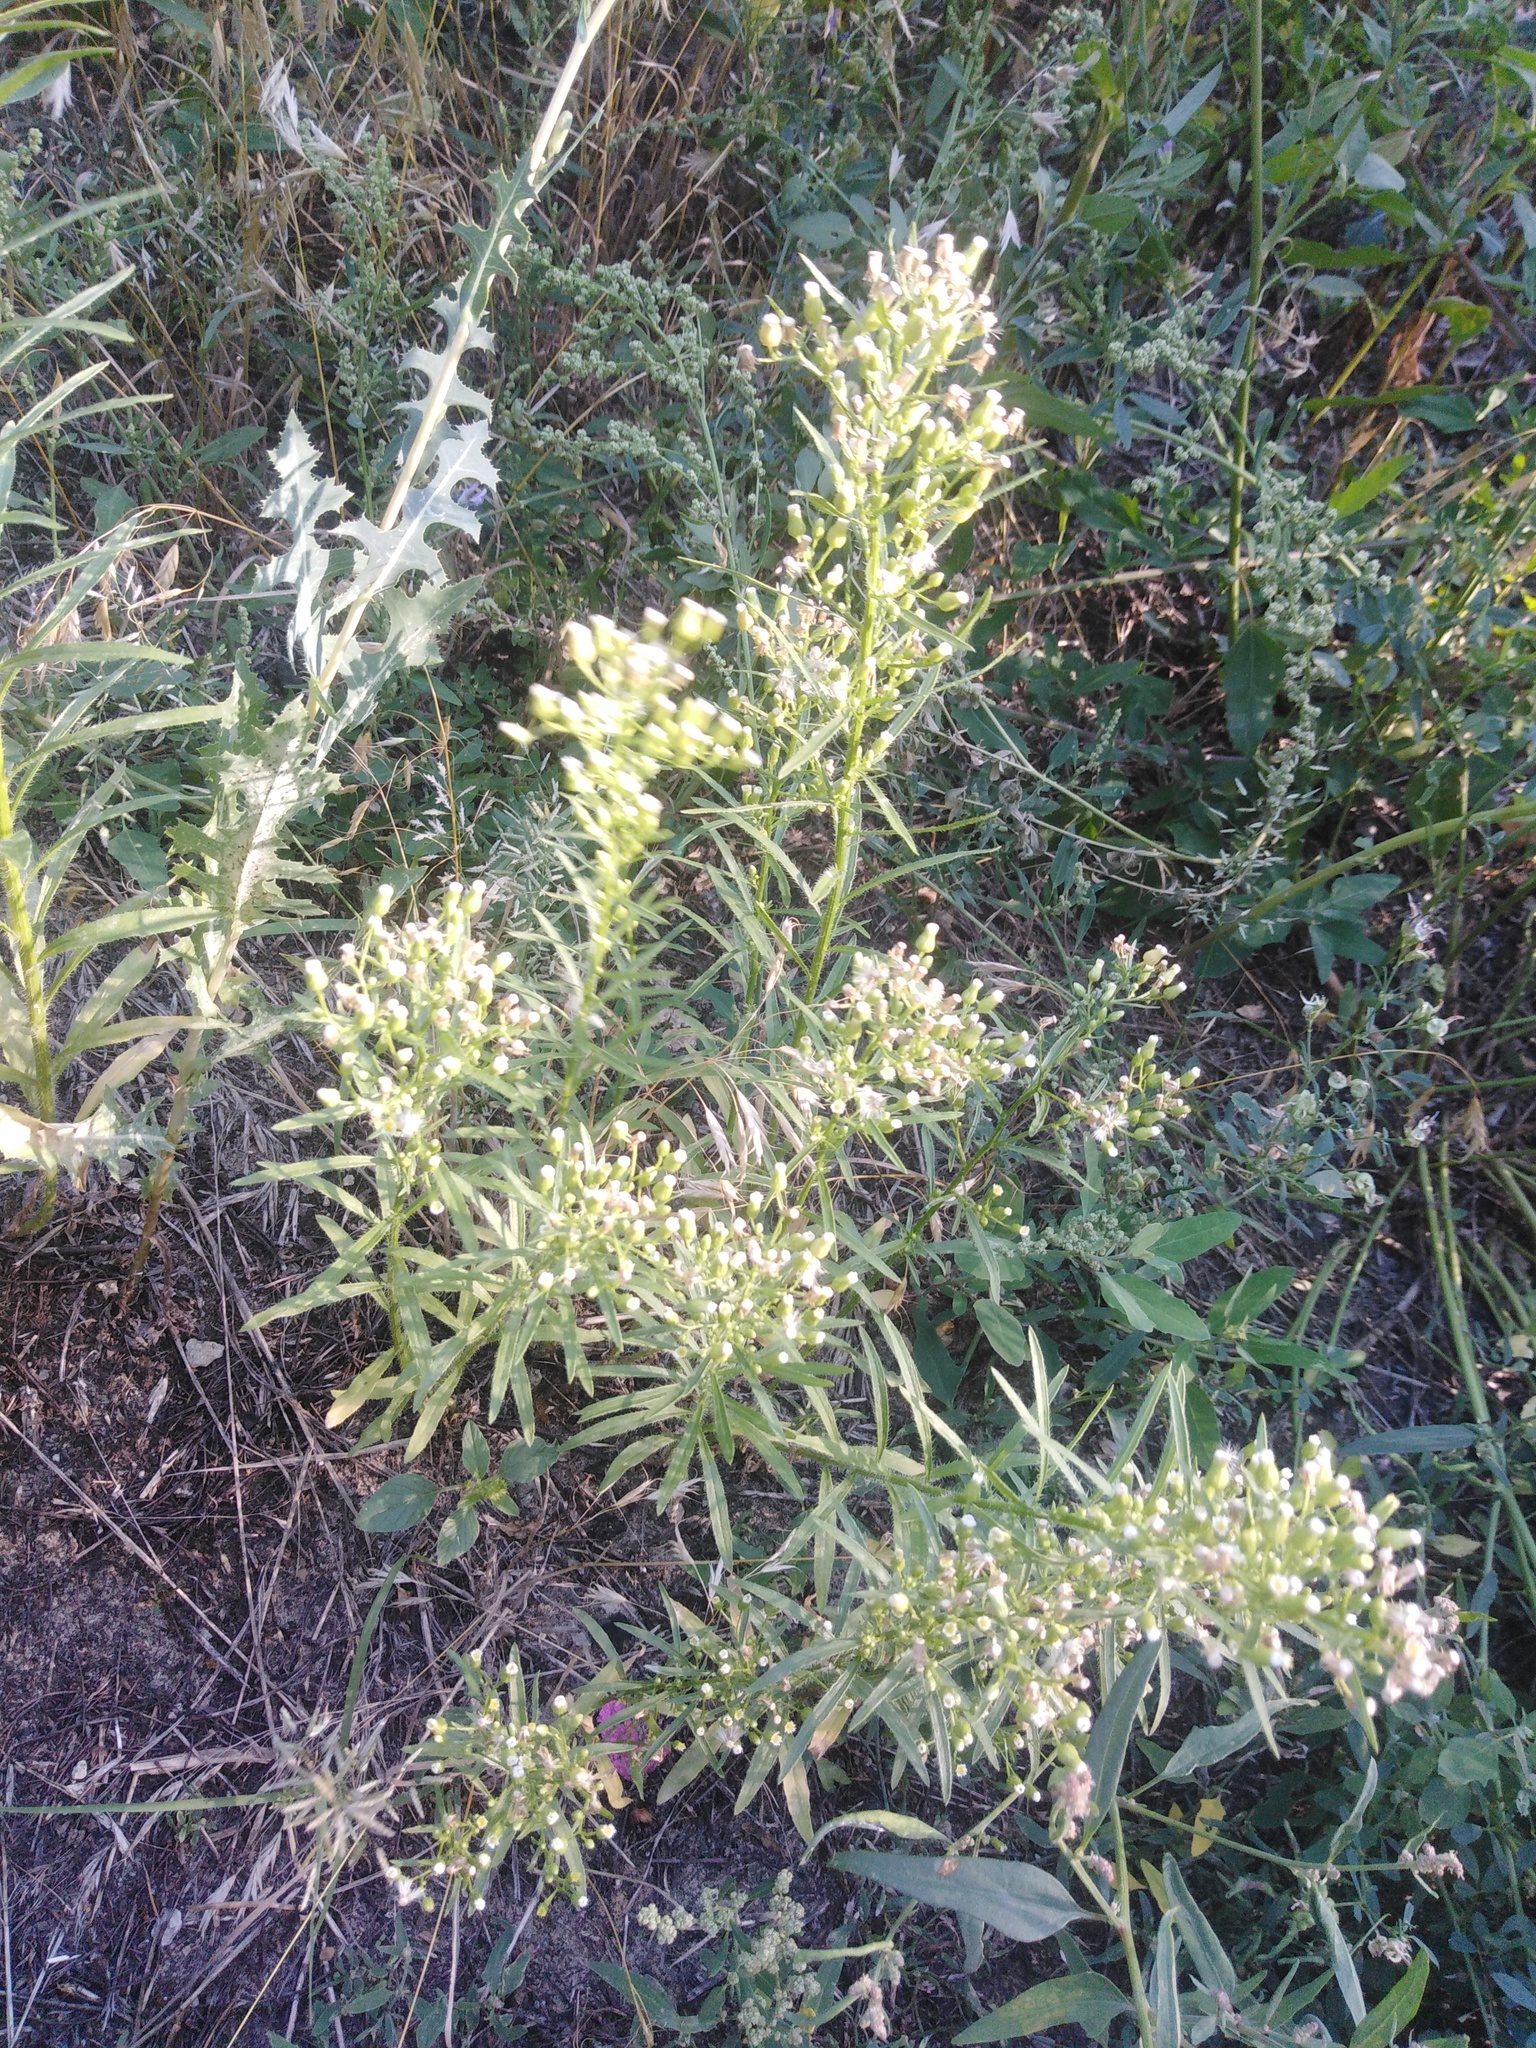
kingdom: Plantae
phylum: Tracheophyta
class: Magnoliopsida
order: Asterales
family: Asteraceae
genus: Erigeron
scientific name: Erigeron canadensis
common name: Canadian fleabane
